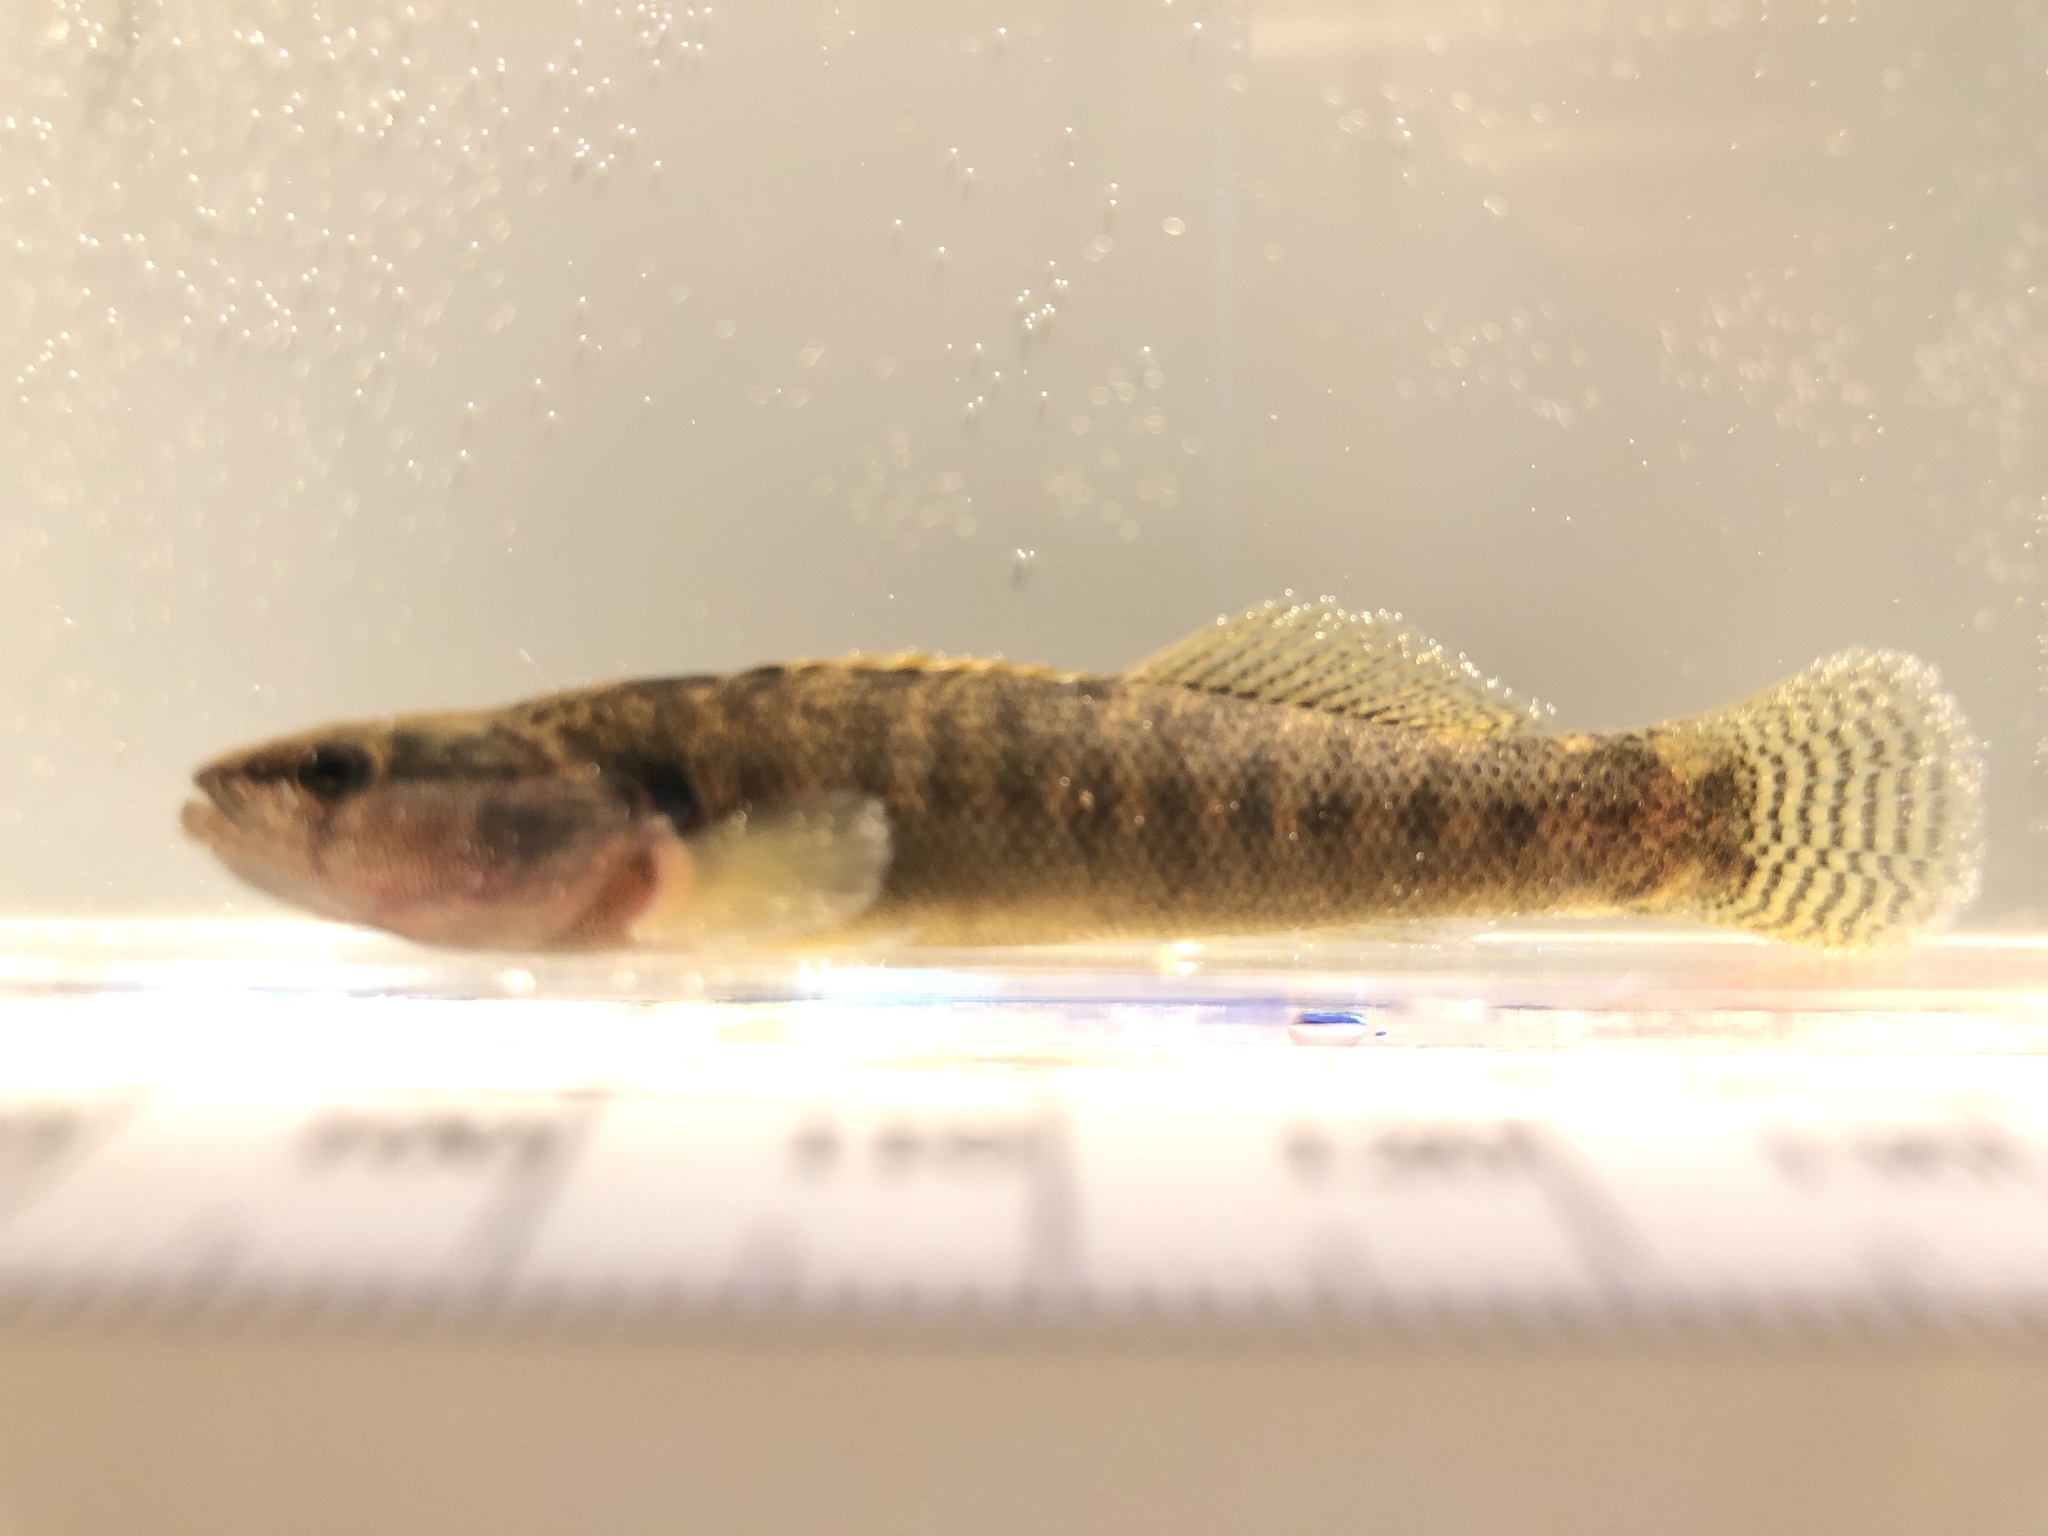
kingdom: Animalia
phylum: Chordata
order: Perciformes
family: Percidae
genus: Etheostoma
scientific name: Etheostoma flabellare
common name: Fantail darter
